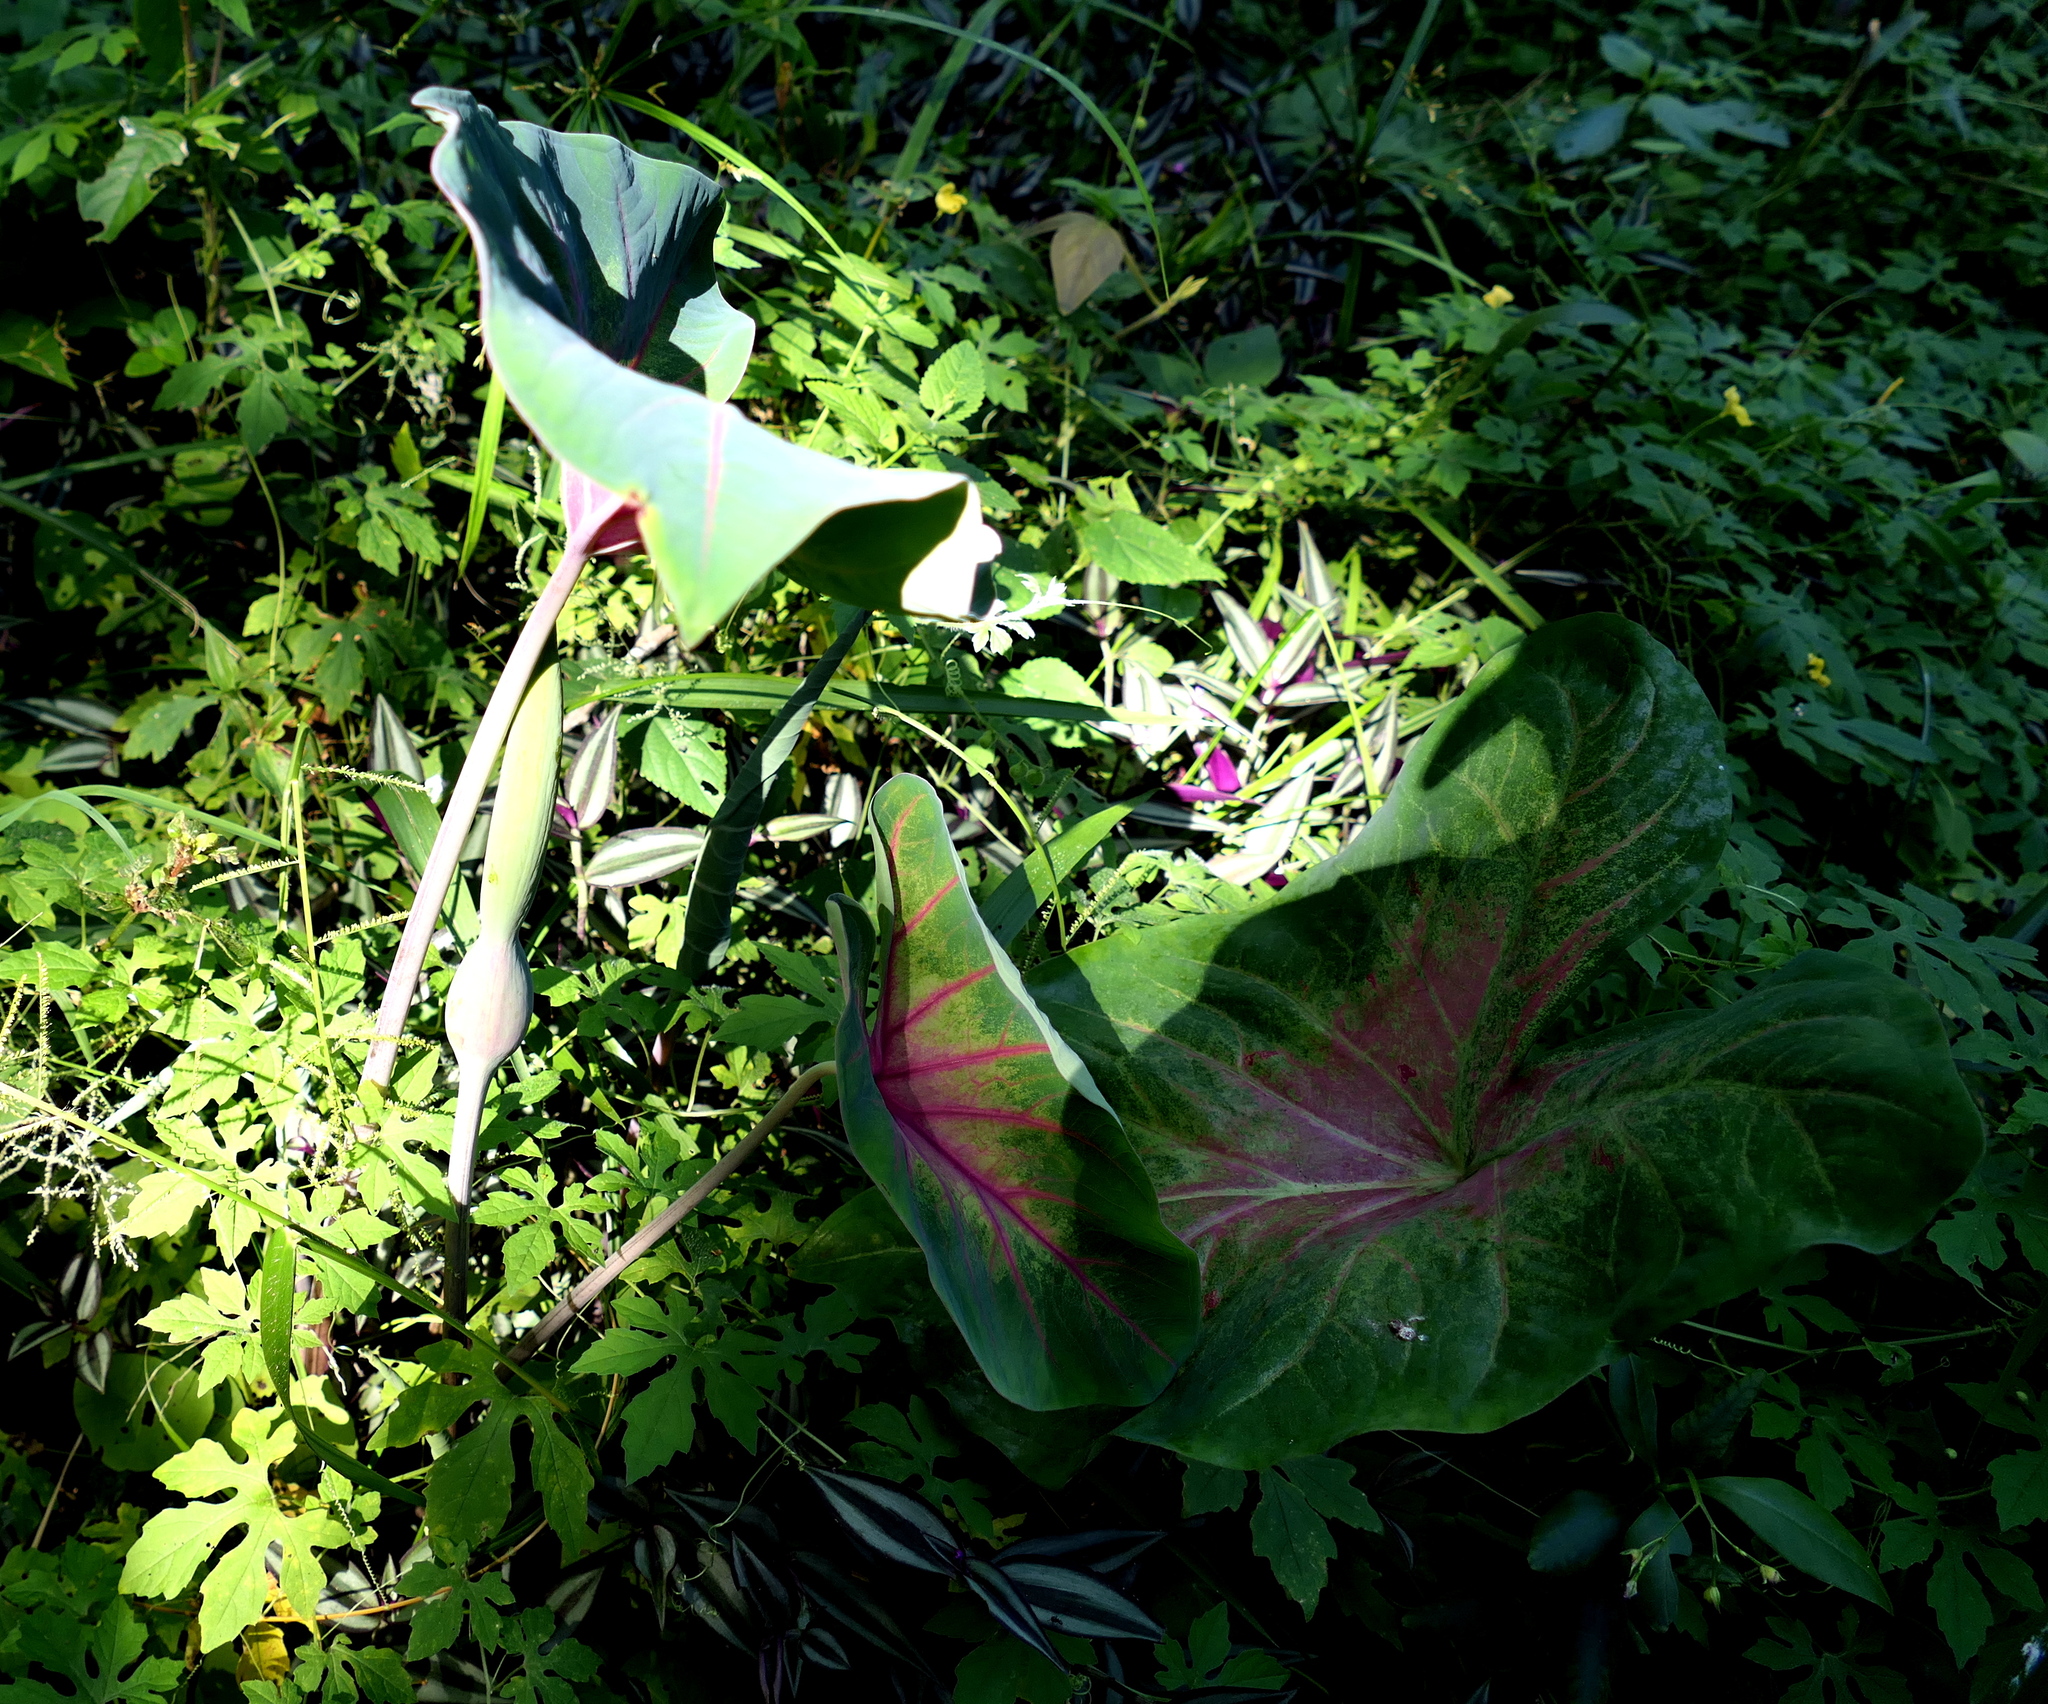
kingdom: Plantae
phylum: Tracheophyta
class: Liliopsida
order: Alismatales
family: Araceae
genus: Caladium
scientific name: Caladium bicolor
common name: Artist's pallet
